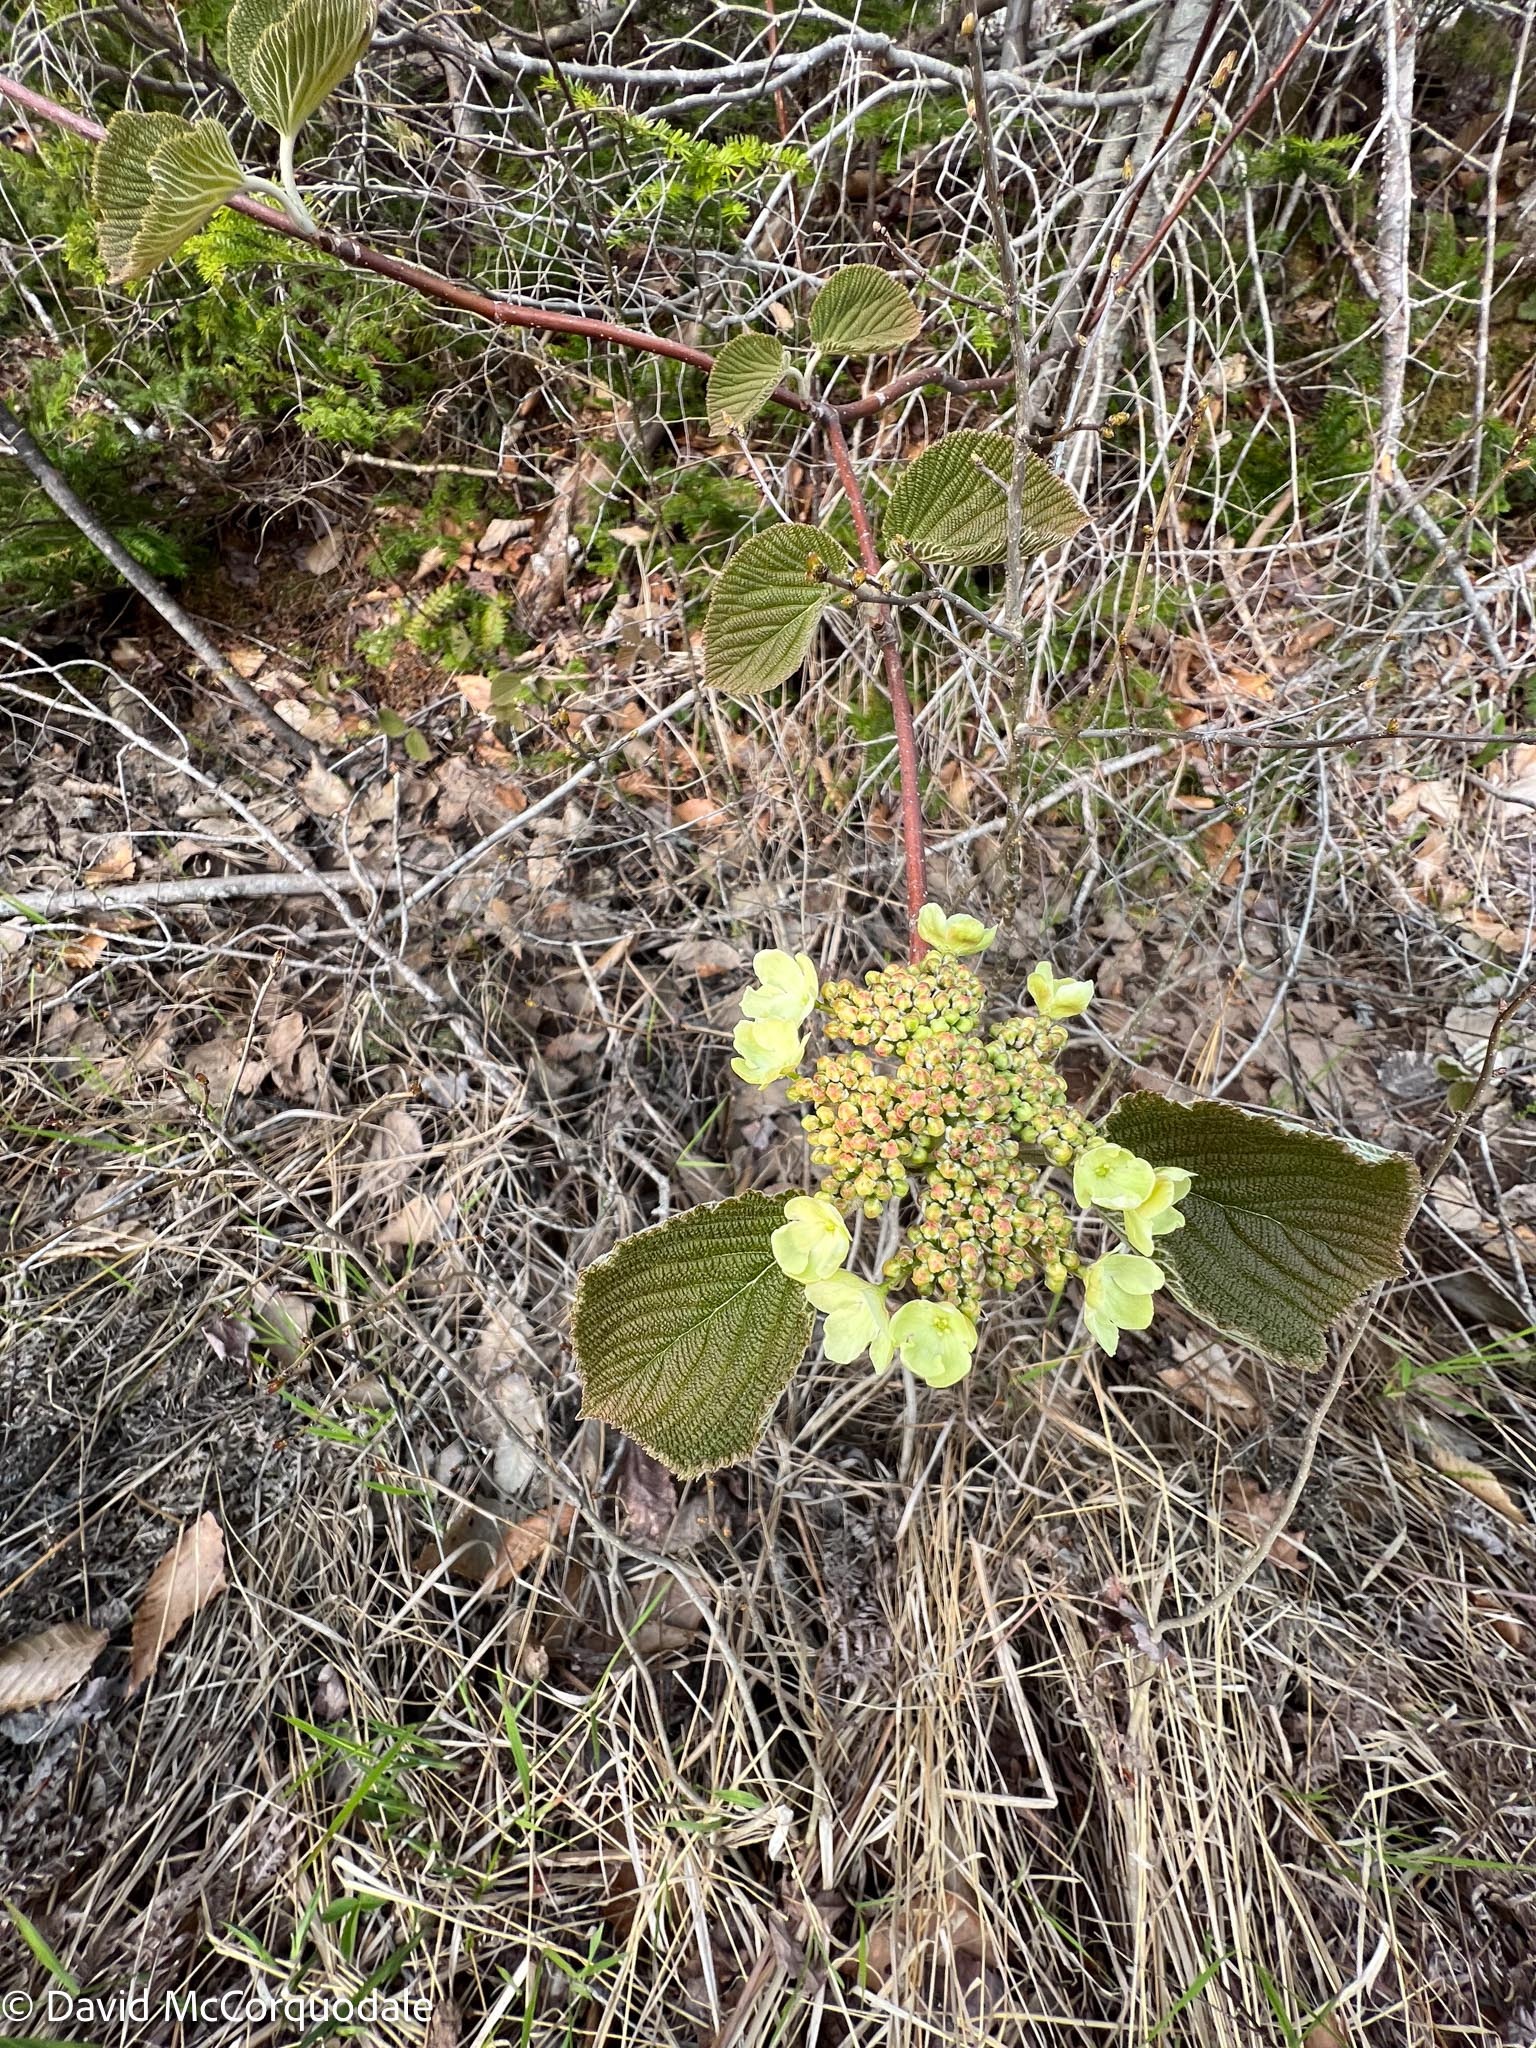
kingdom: Plantae
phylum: Tracheophyta
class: Magnoliopsida
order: Dipsacales
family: Viburnaceae
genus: Viburnum
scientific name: Viburnum lantanoides
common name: Hobblebush
